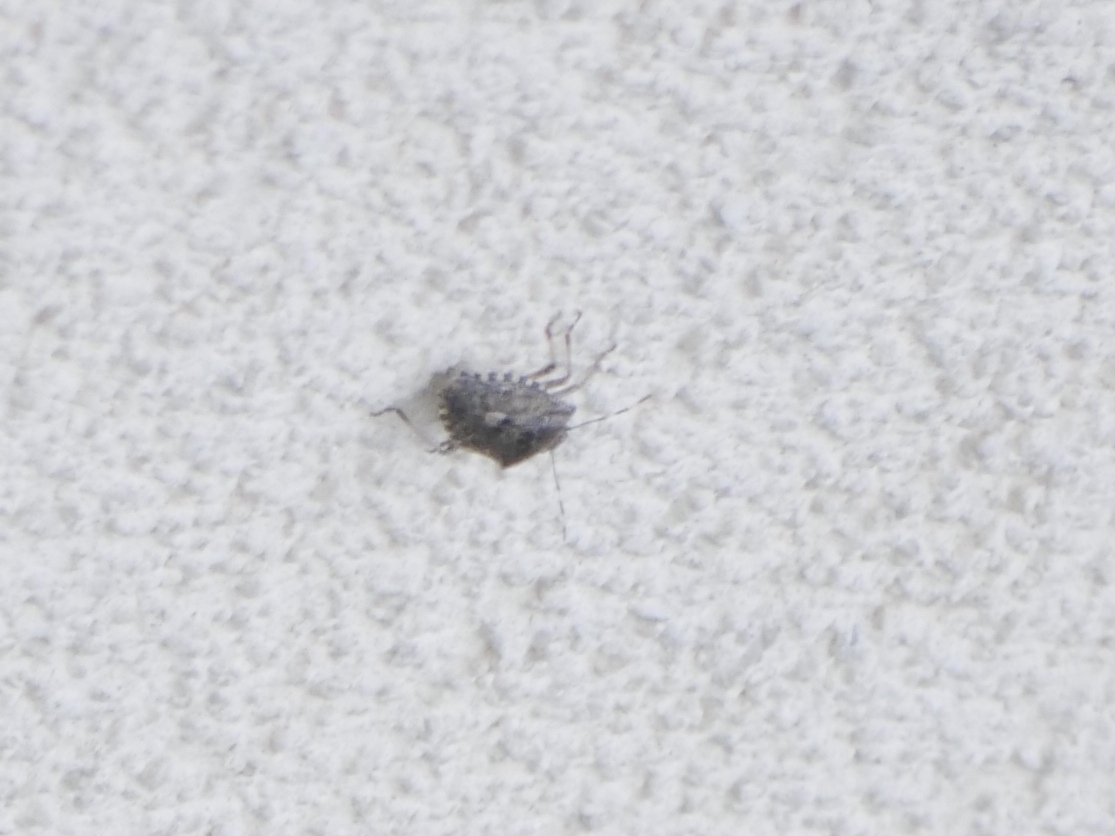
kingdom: Animalia
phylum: Arthropoda
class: Insecta
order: Hemiptera
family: Pentatomidae
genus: Rhaphigaster
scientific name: Rhaphigaster nebulosa
